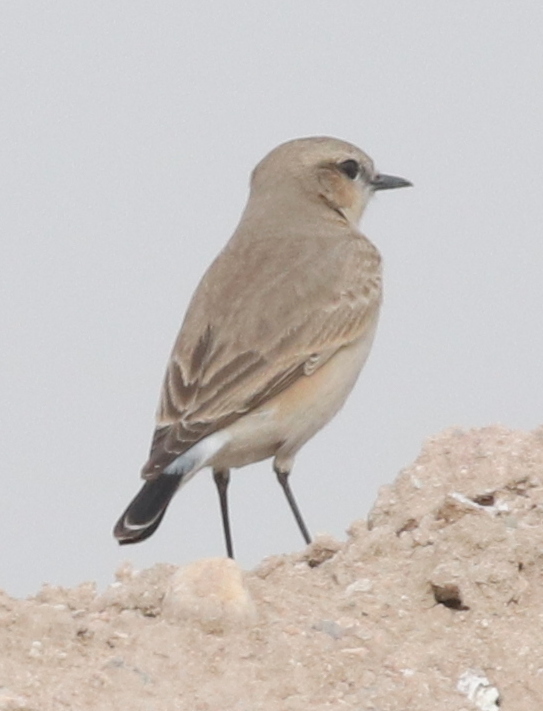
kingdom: Animalia
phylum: Chordata
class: Aves
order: Passeriformes
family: Muscicapidae
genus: Oenanthe
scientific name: Oenanthe isabellina
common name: Isabelline wheatear
